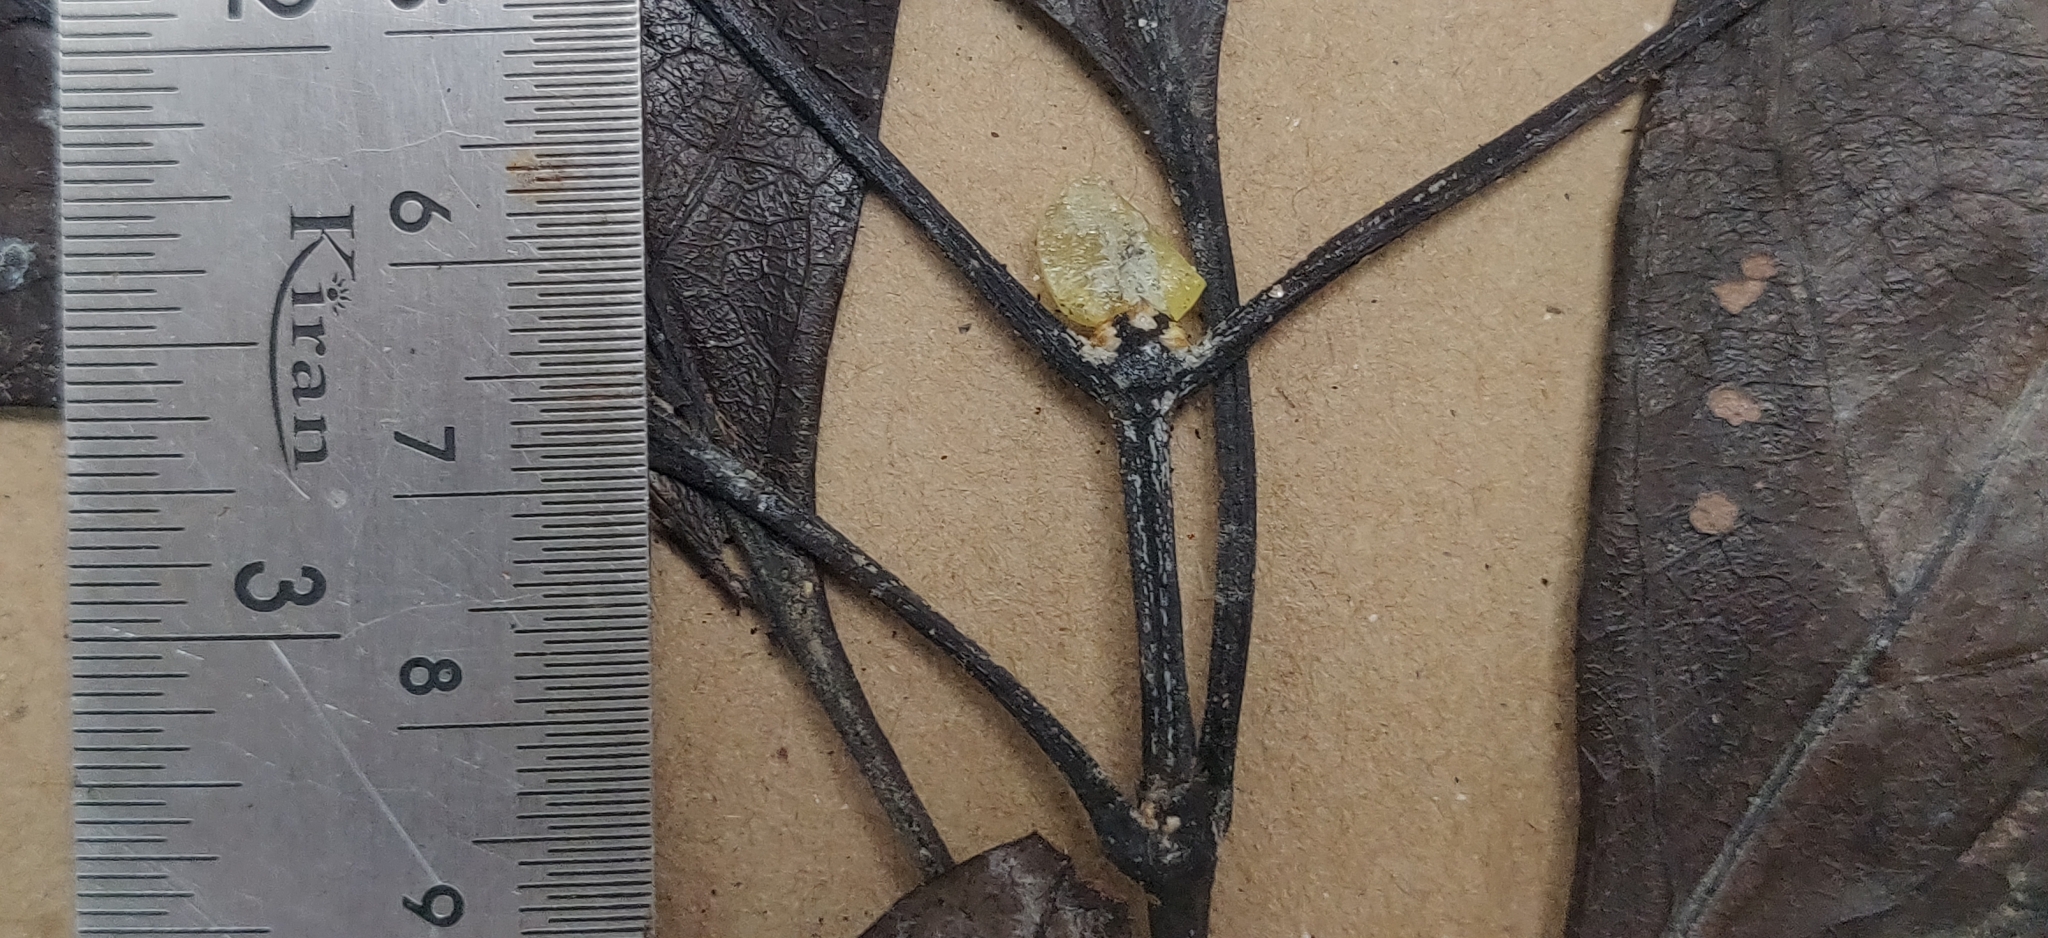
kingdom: Plantae
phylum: Tracheophyta
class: Magnoliopsida
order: Gentianales
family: Rubiaceae
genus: Tarenna
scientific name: Tarenna asiatica
